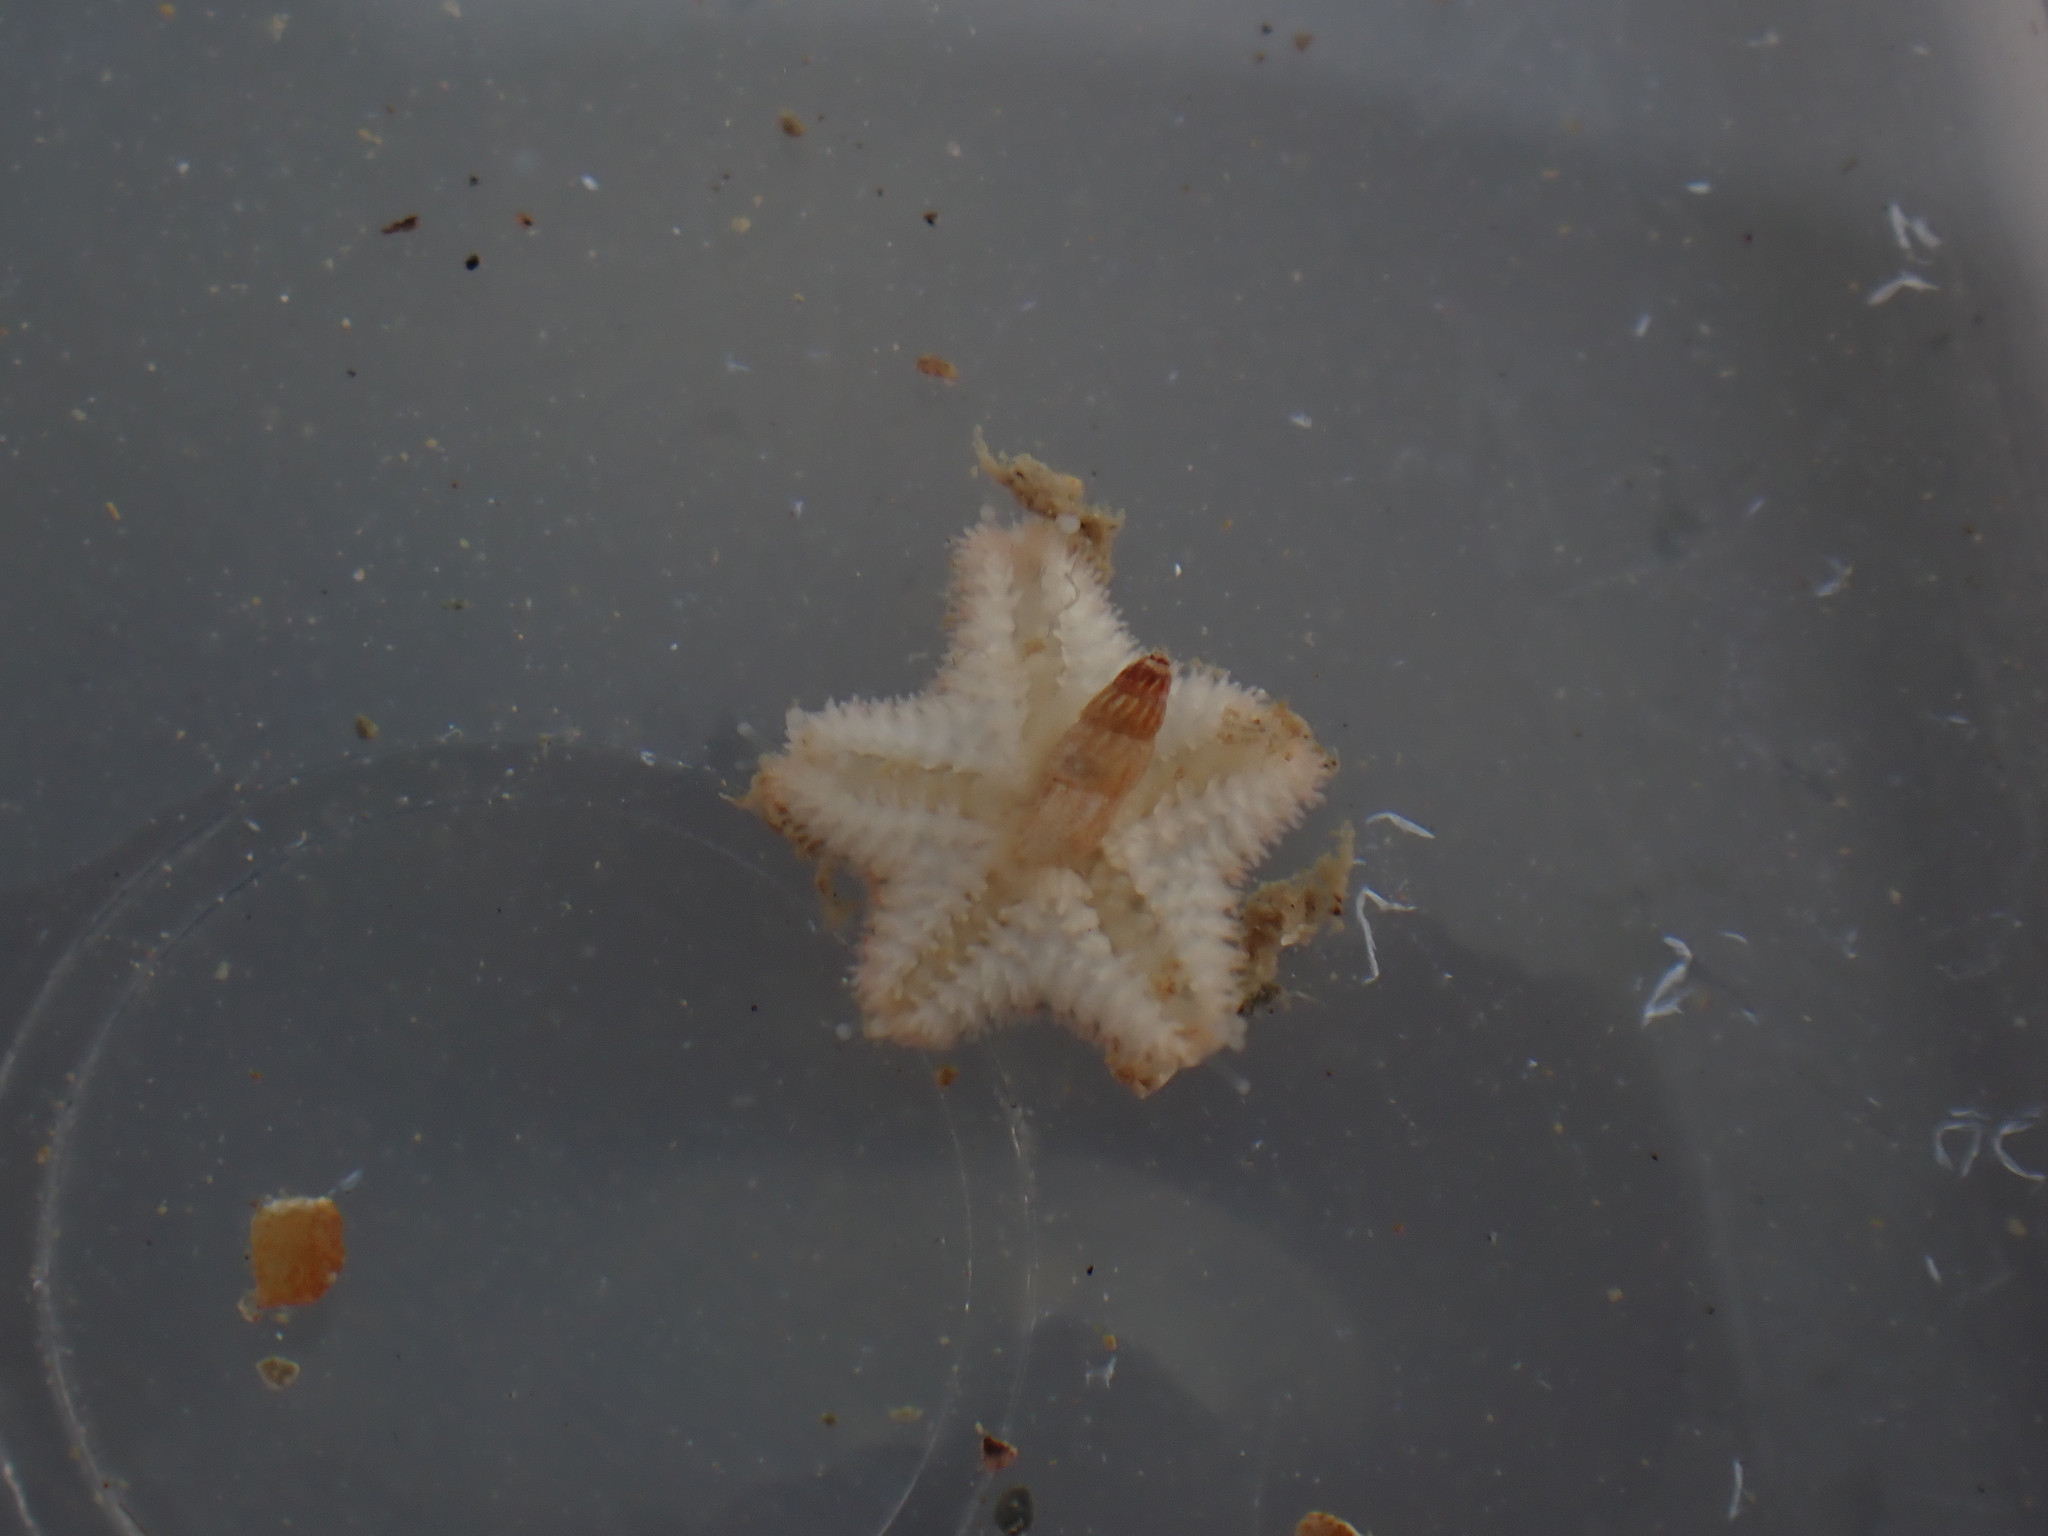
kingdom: Animalia
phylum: Echinodermata
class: Asteroidea
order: Valvatida
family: Asterinidae
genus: Asterina
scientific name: Asterina gibbosa
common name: Cushion star
